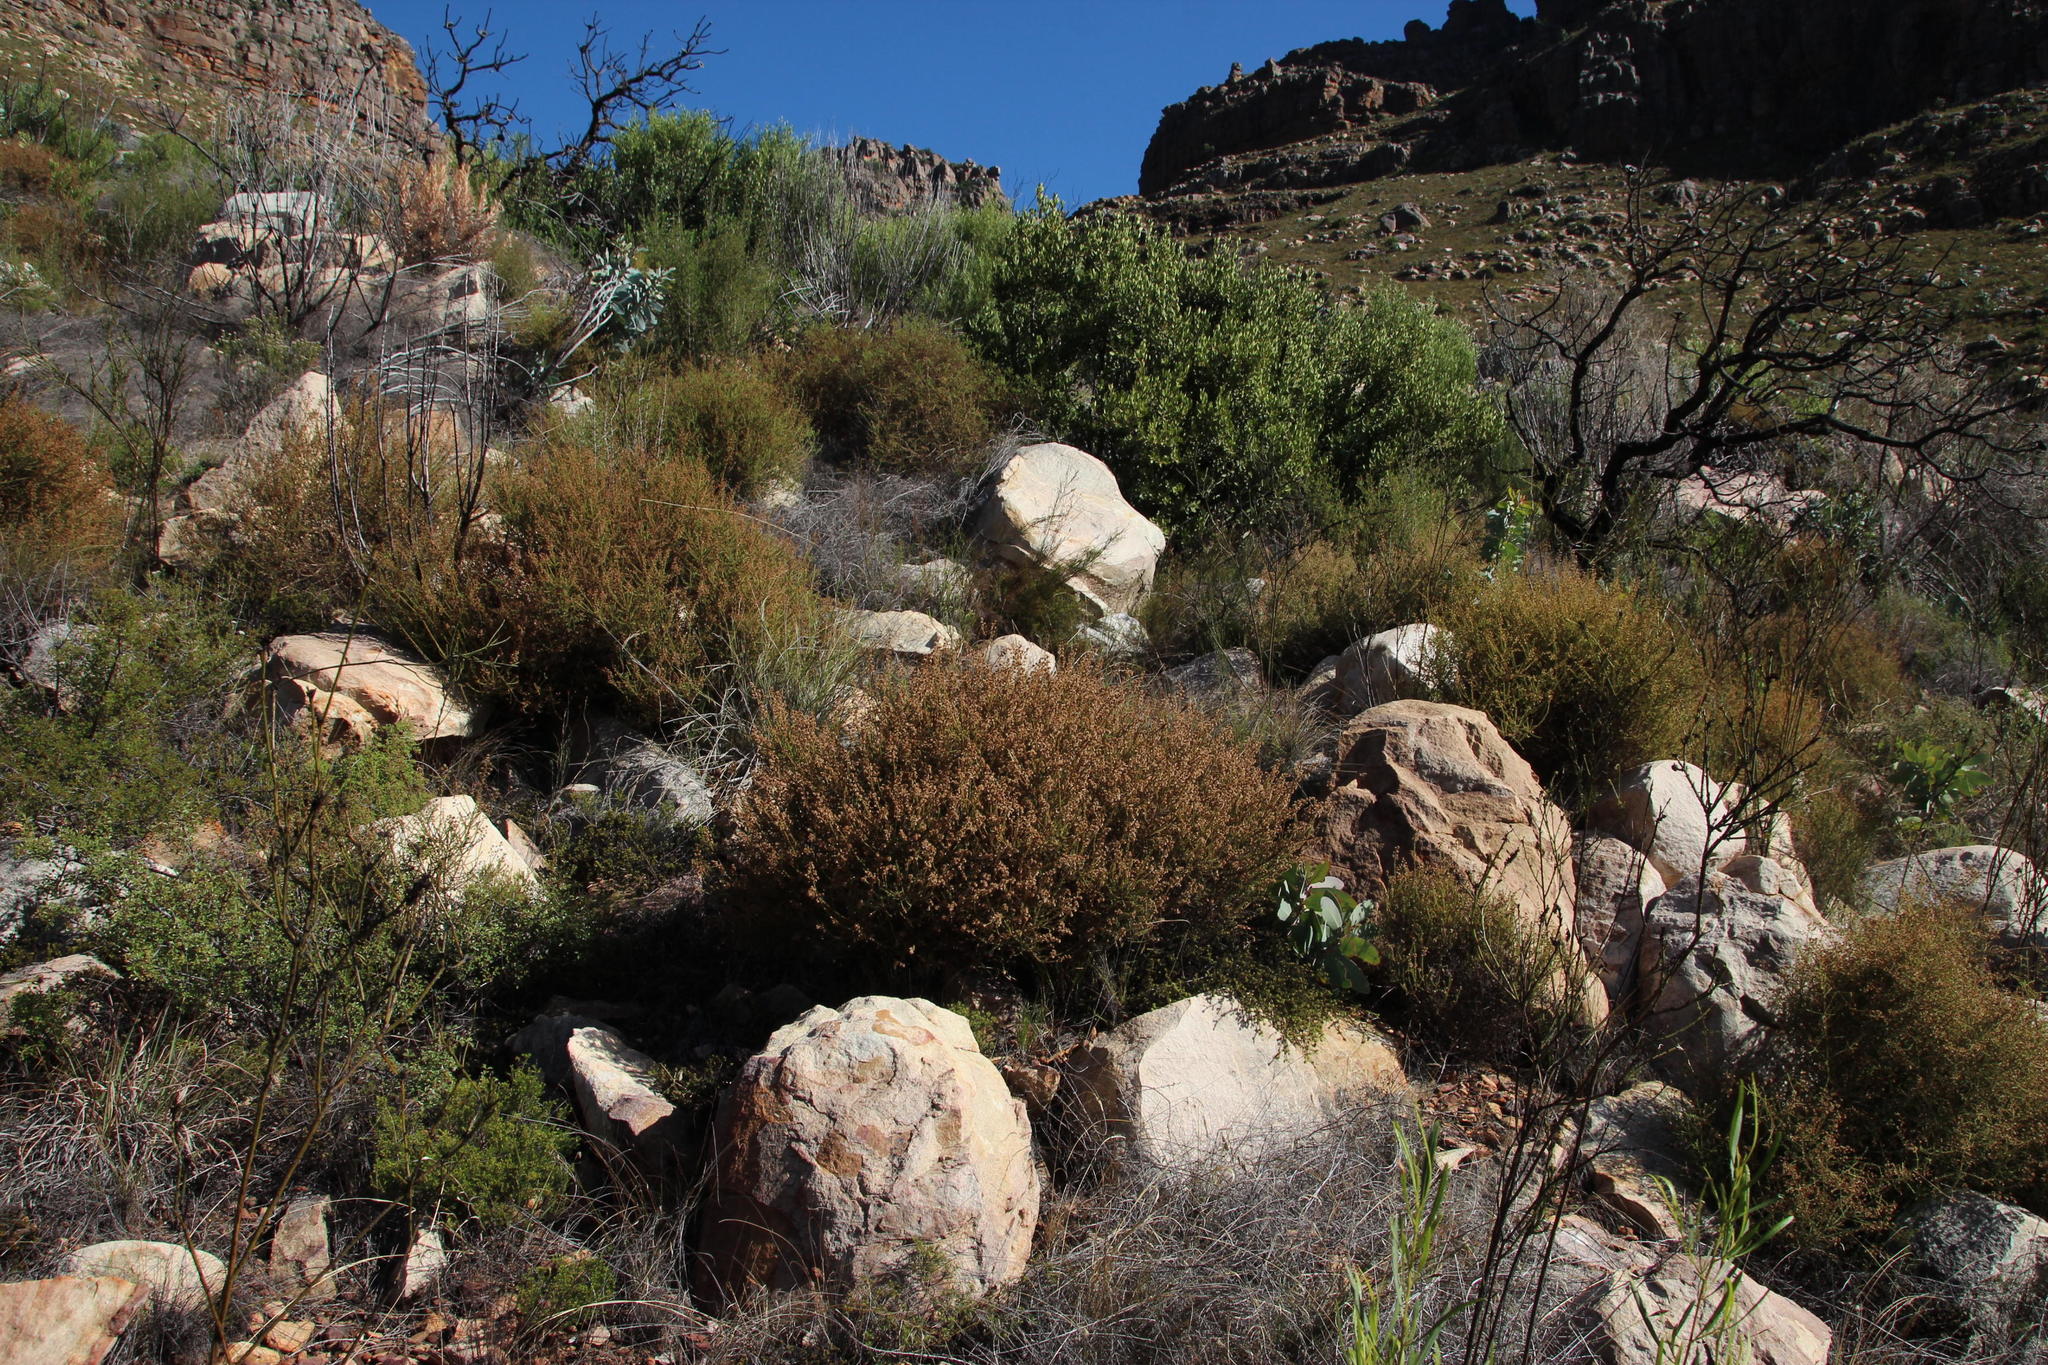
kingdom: Plantae
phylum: Tracheophyta
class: Magnoliopsida
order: Asterales
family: Asteraceae
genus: Myrovernix
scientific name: Myrovernix scaber
